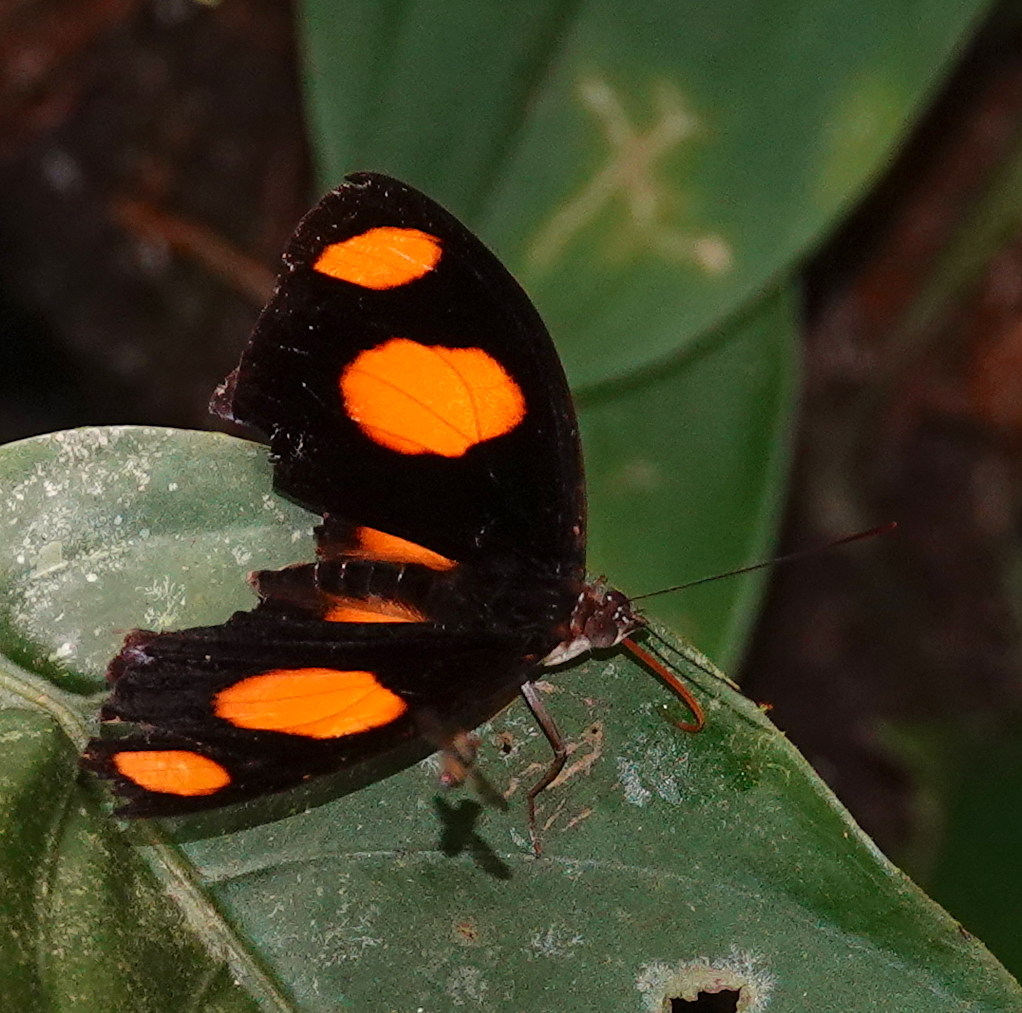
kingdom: Animalia
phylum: Arthropoda
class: Insecta
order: Lepidoptera
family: Nymphalidae
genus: Catonephele
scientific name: Catonephele numilia
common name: Blue-frosted banner
